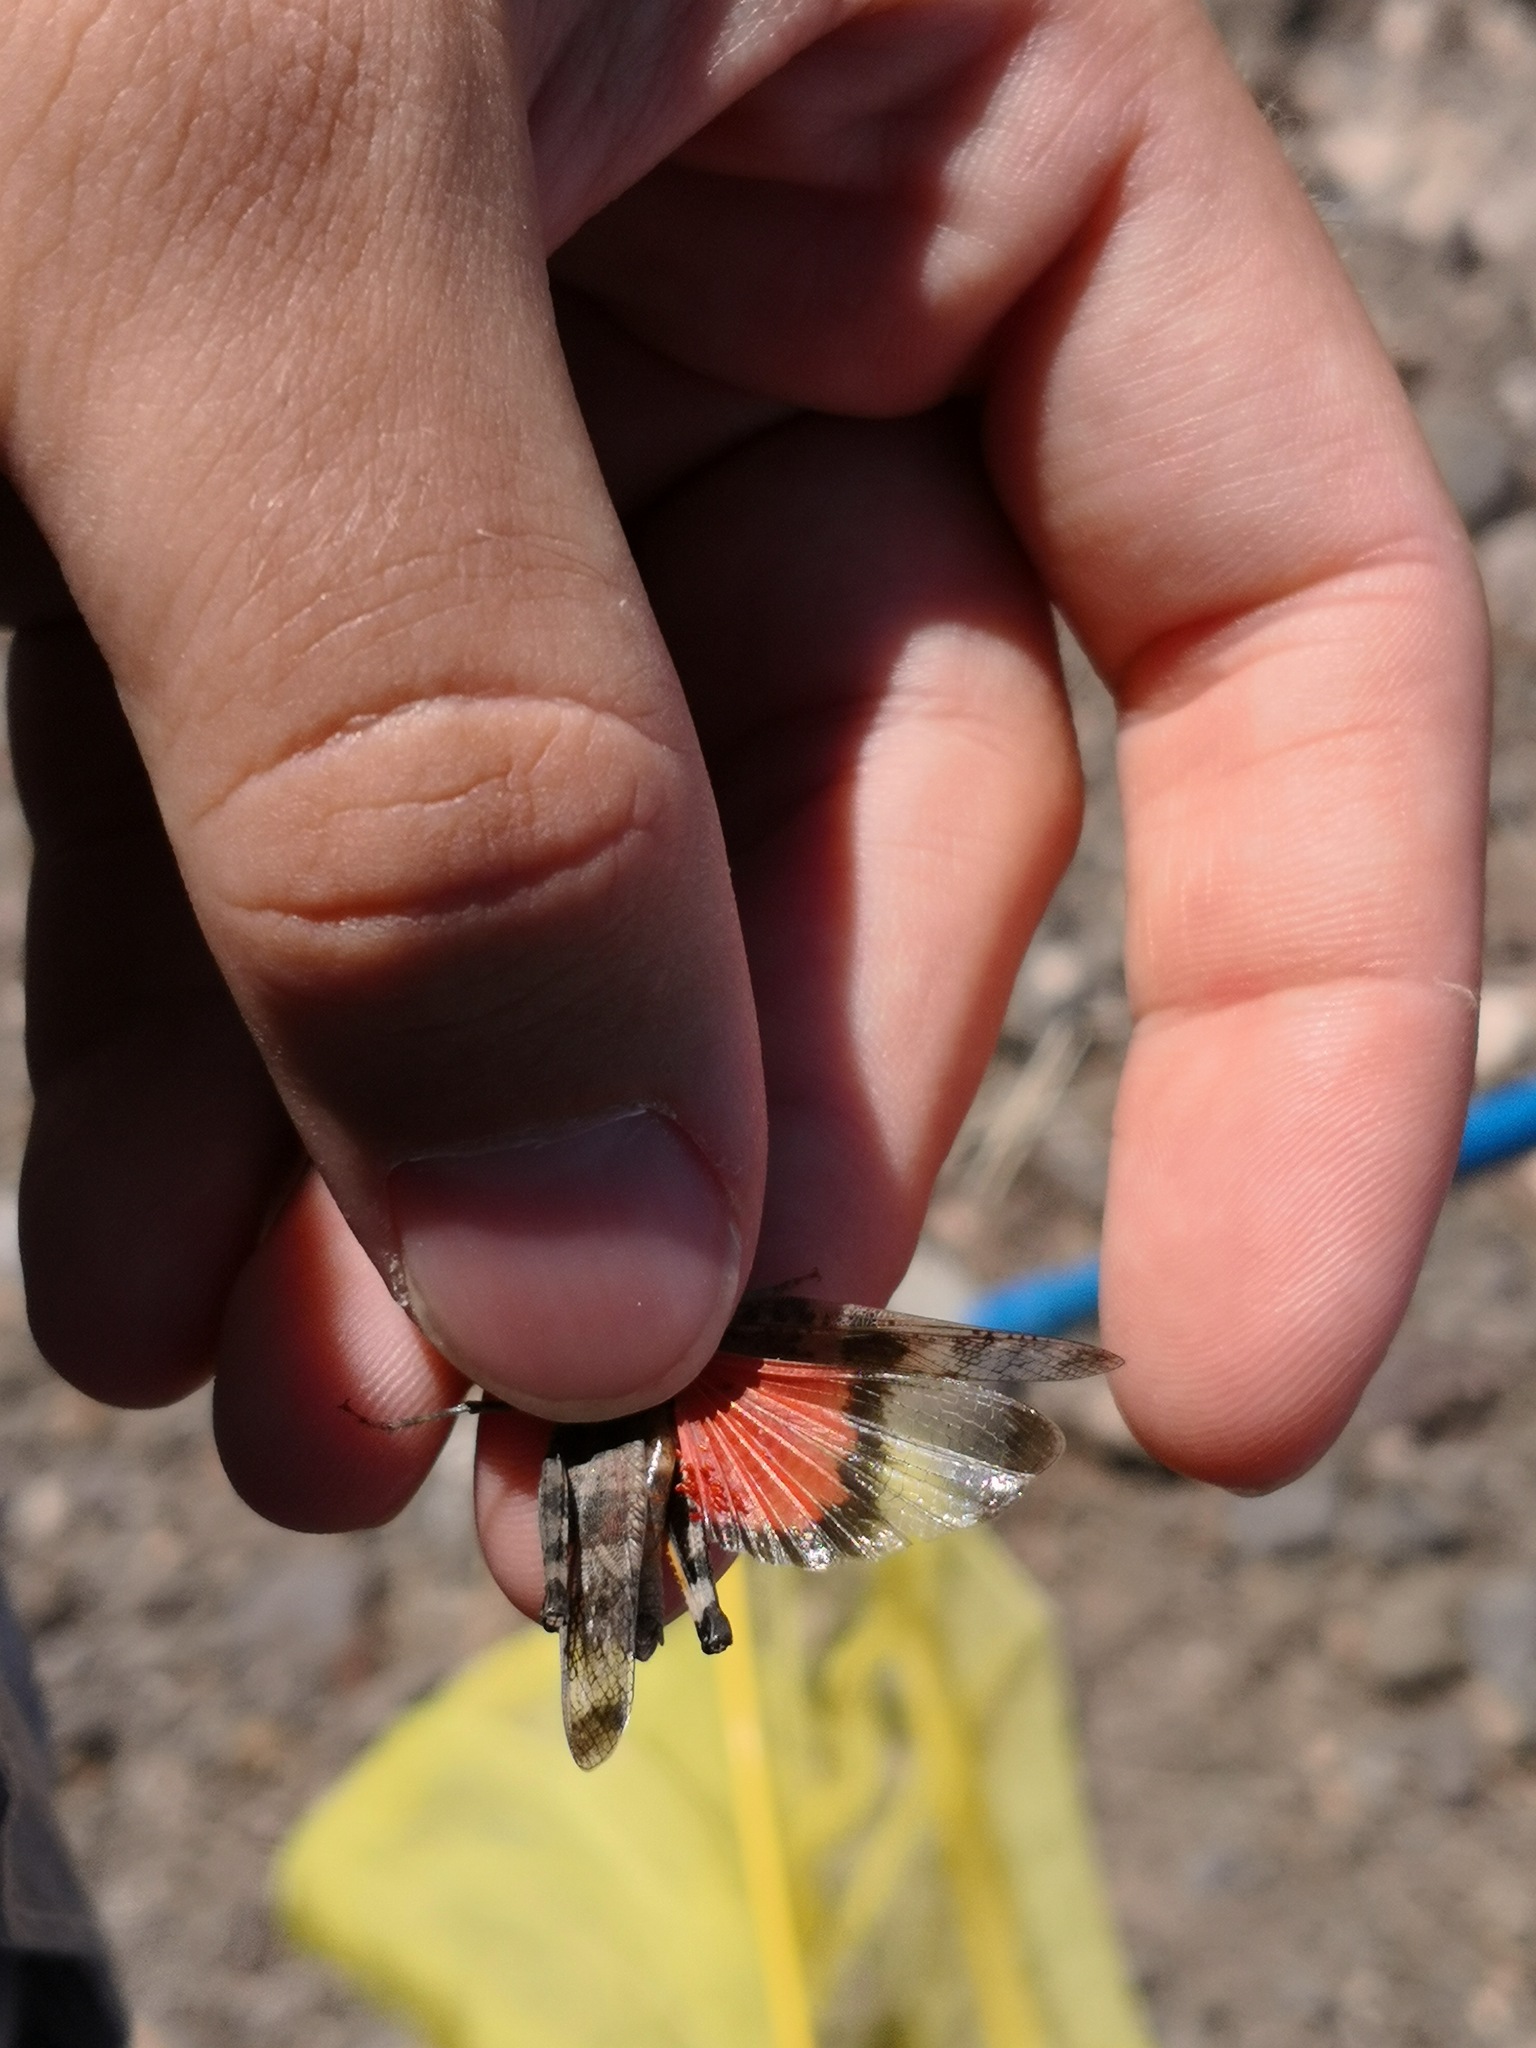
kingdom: Animalia
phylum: Arthropoda
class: Insecta
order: Orthoptera
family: Acrididae
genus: Scintharista
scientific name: Scintharista notabilis
